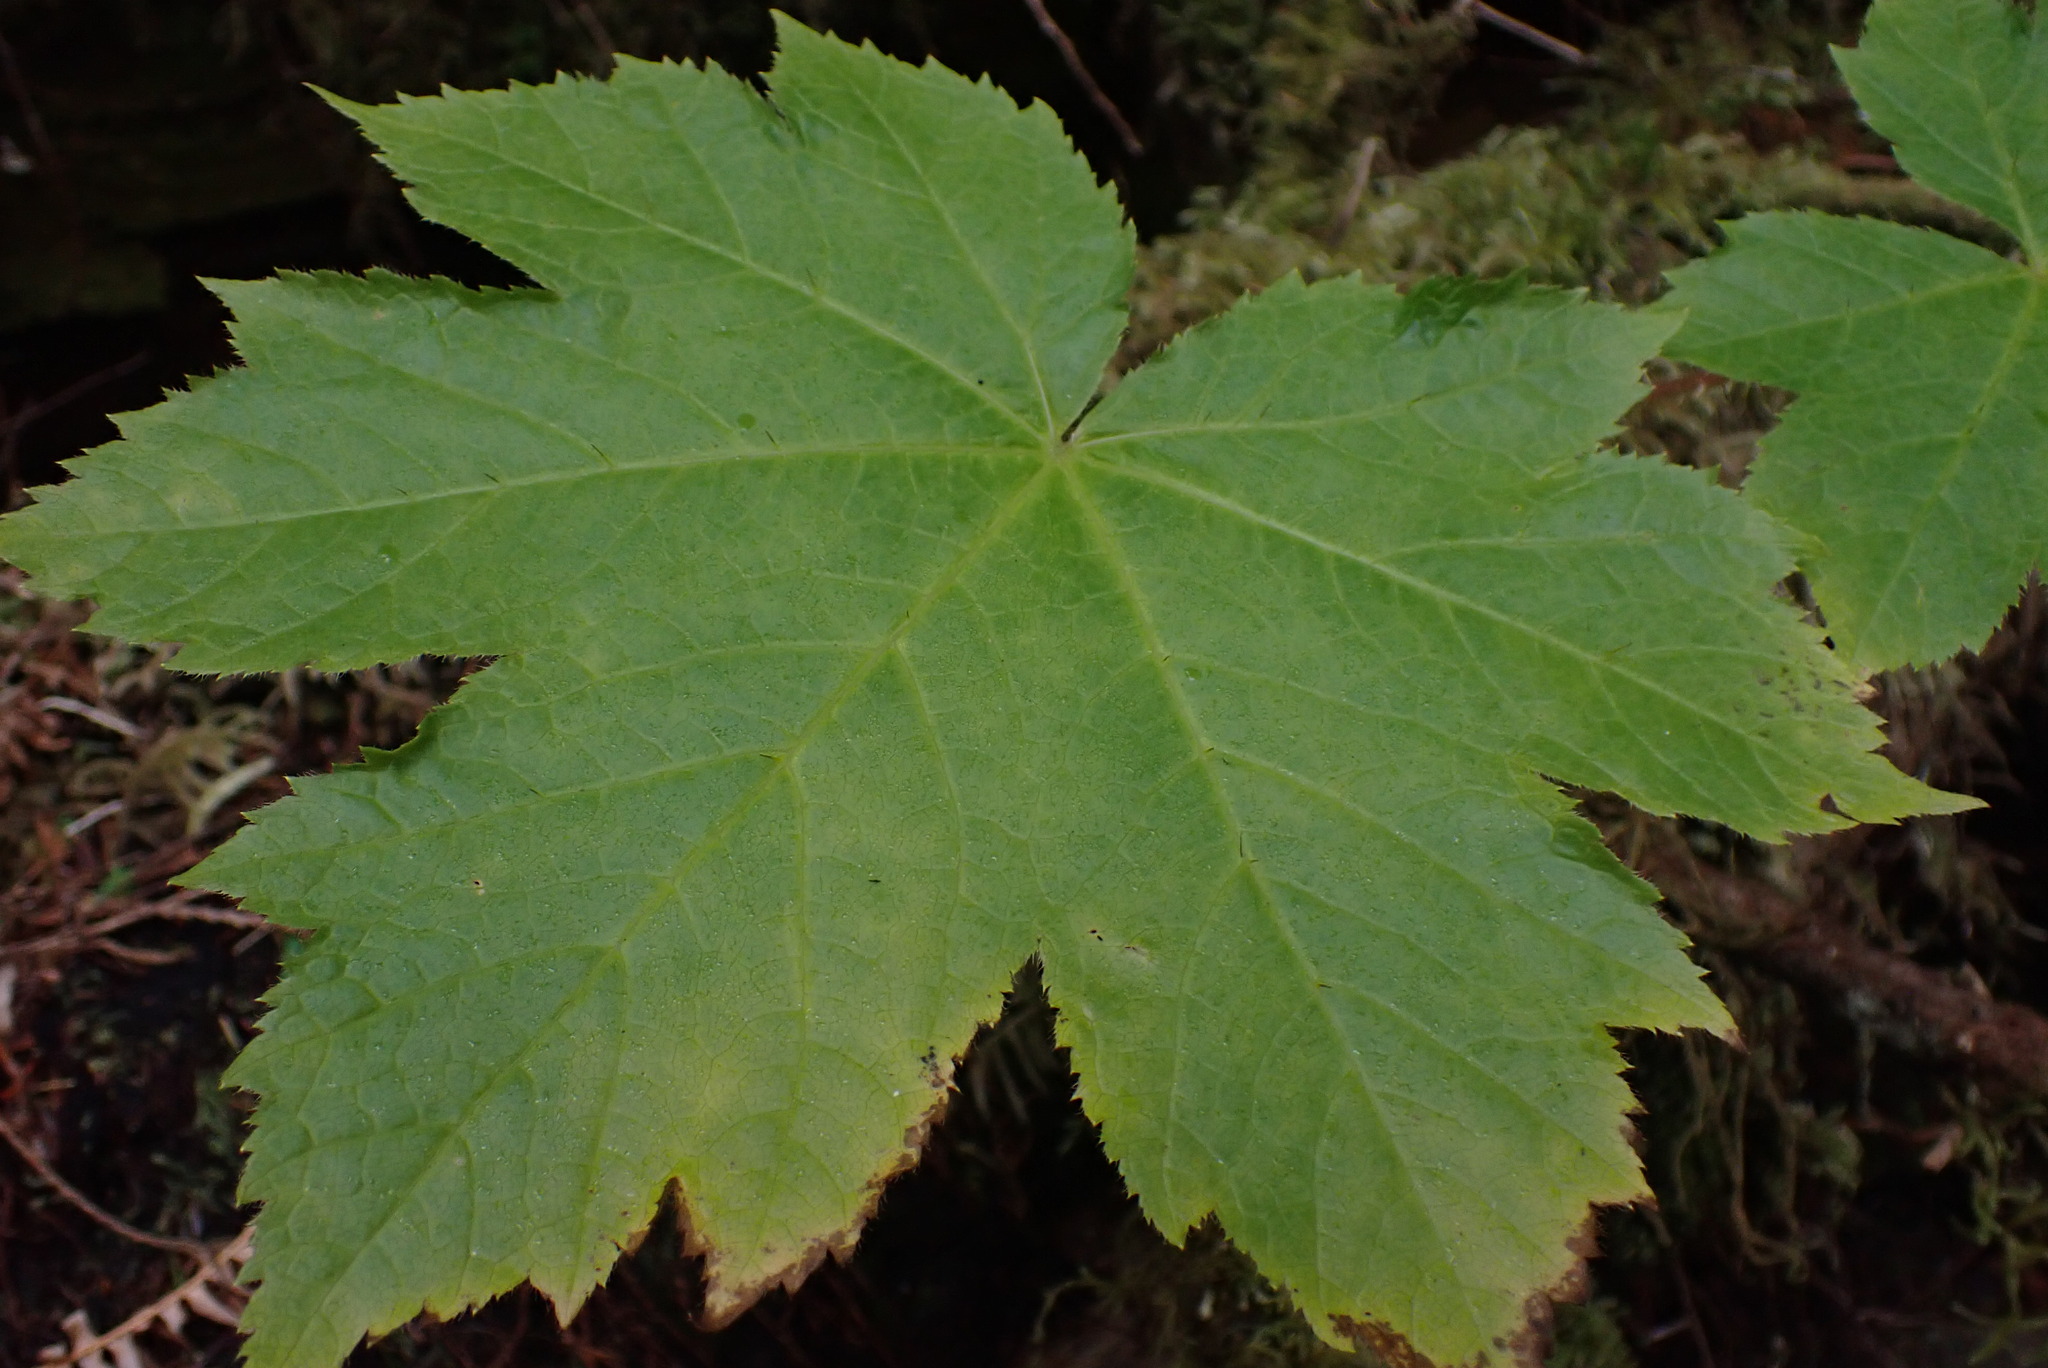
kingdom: Plantae
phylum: Tracheophyta
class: Magnoliopsida
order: Apiales
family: Araliaceae
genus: Oplopanax
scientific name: Oplopanax horridus
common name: Devil's walking-stick
